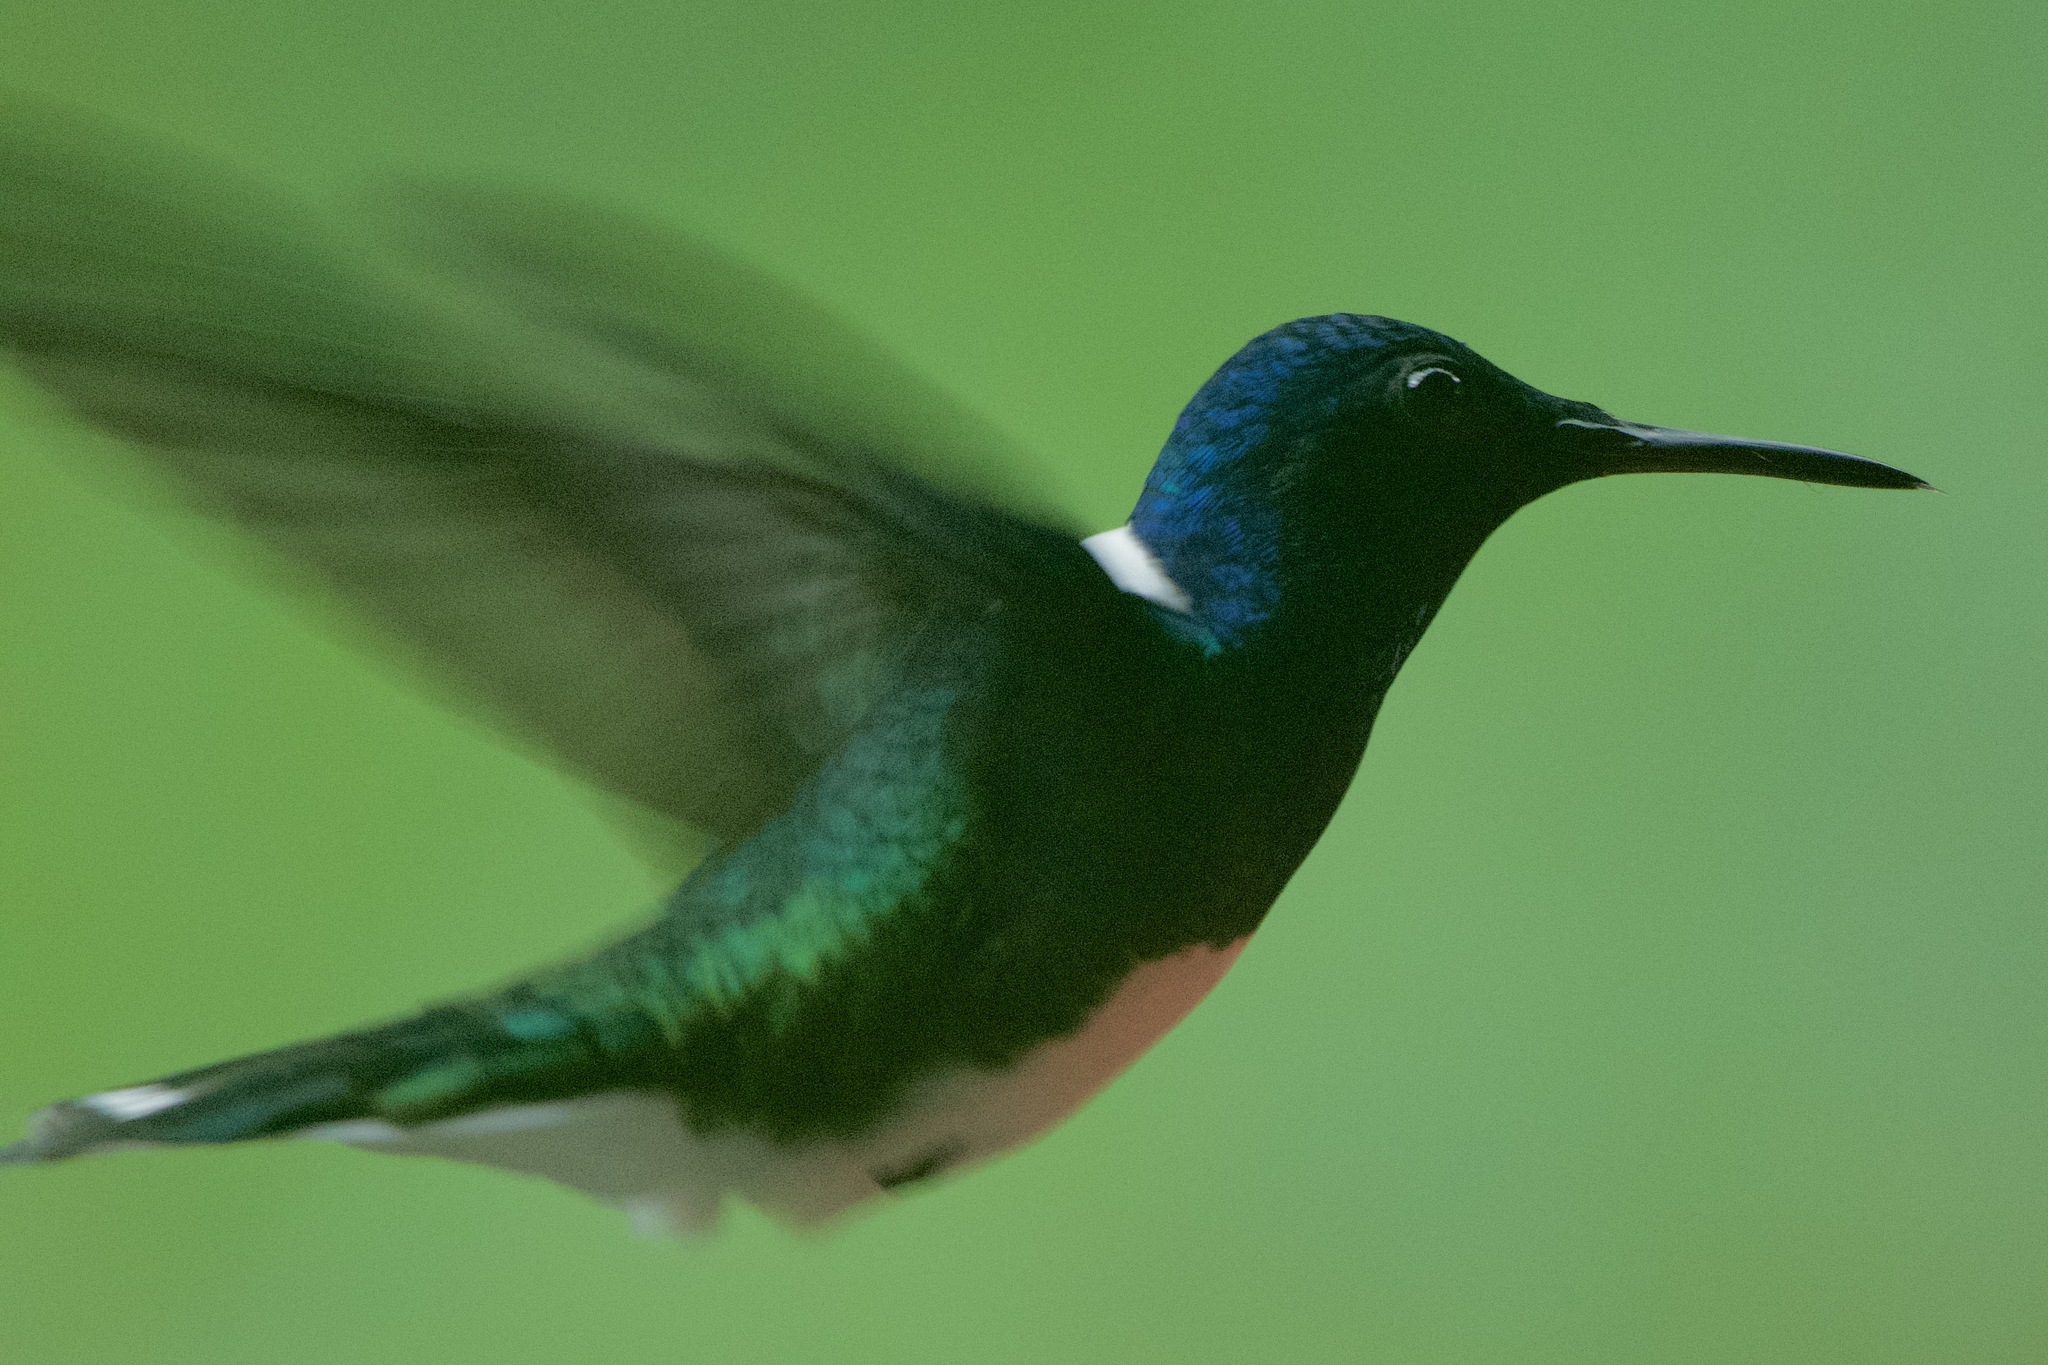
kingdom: Animalia
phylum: Chordata
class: Aves
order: Apodiformes
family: Trochilidae
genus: Florisuga
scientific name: Florisuga mellivora
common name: White-necked jacobin
